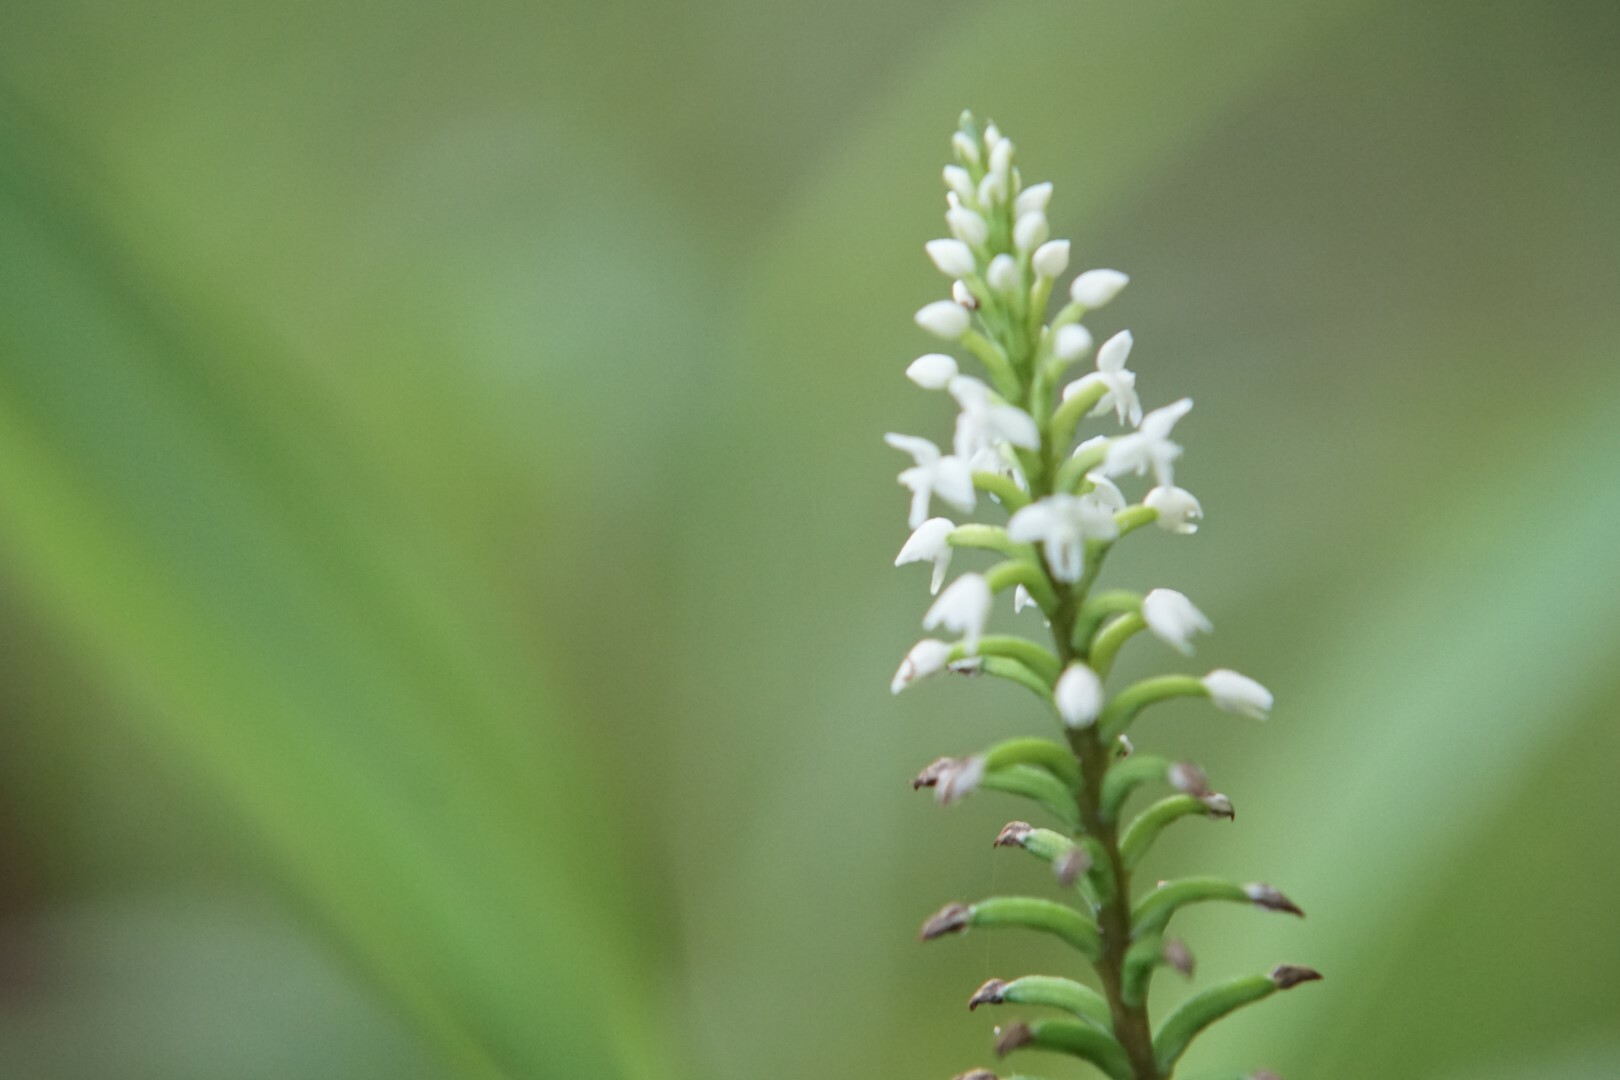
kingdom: Plantae
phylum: Tracheophyta
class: Liliopsida
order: Asparagales
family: Orchidaceae
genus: Cranichis
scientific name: Cranichis muscosa
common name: Cypress-knee helmet orchid
